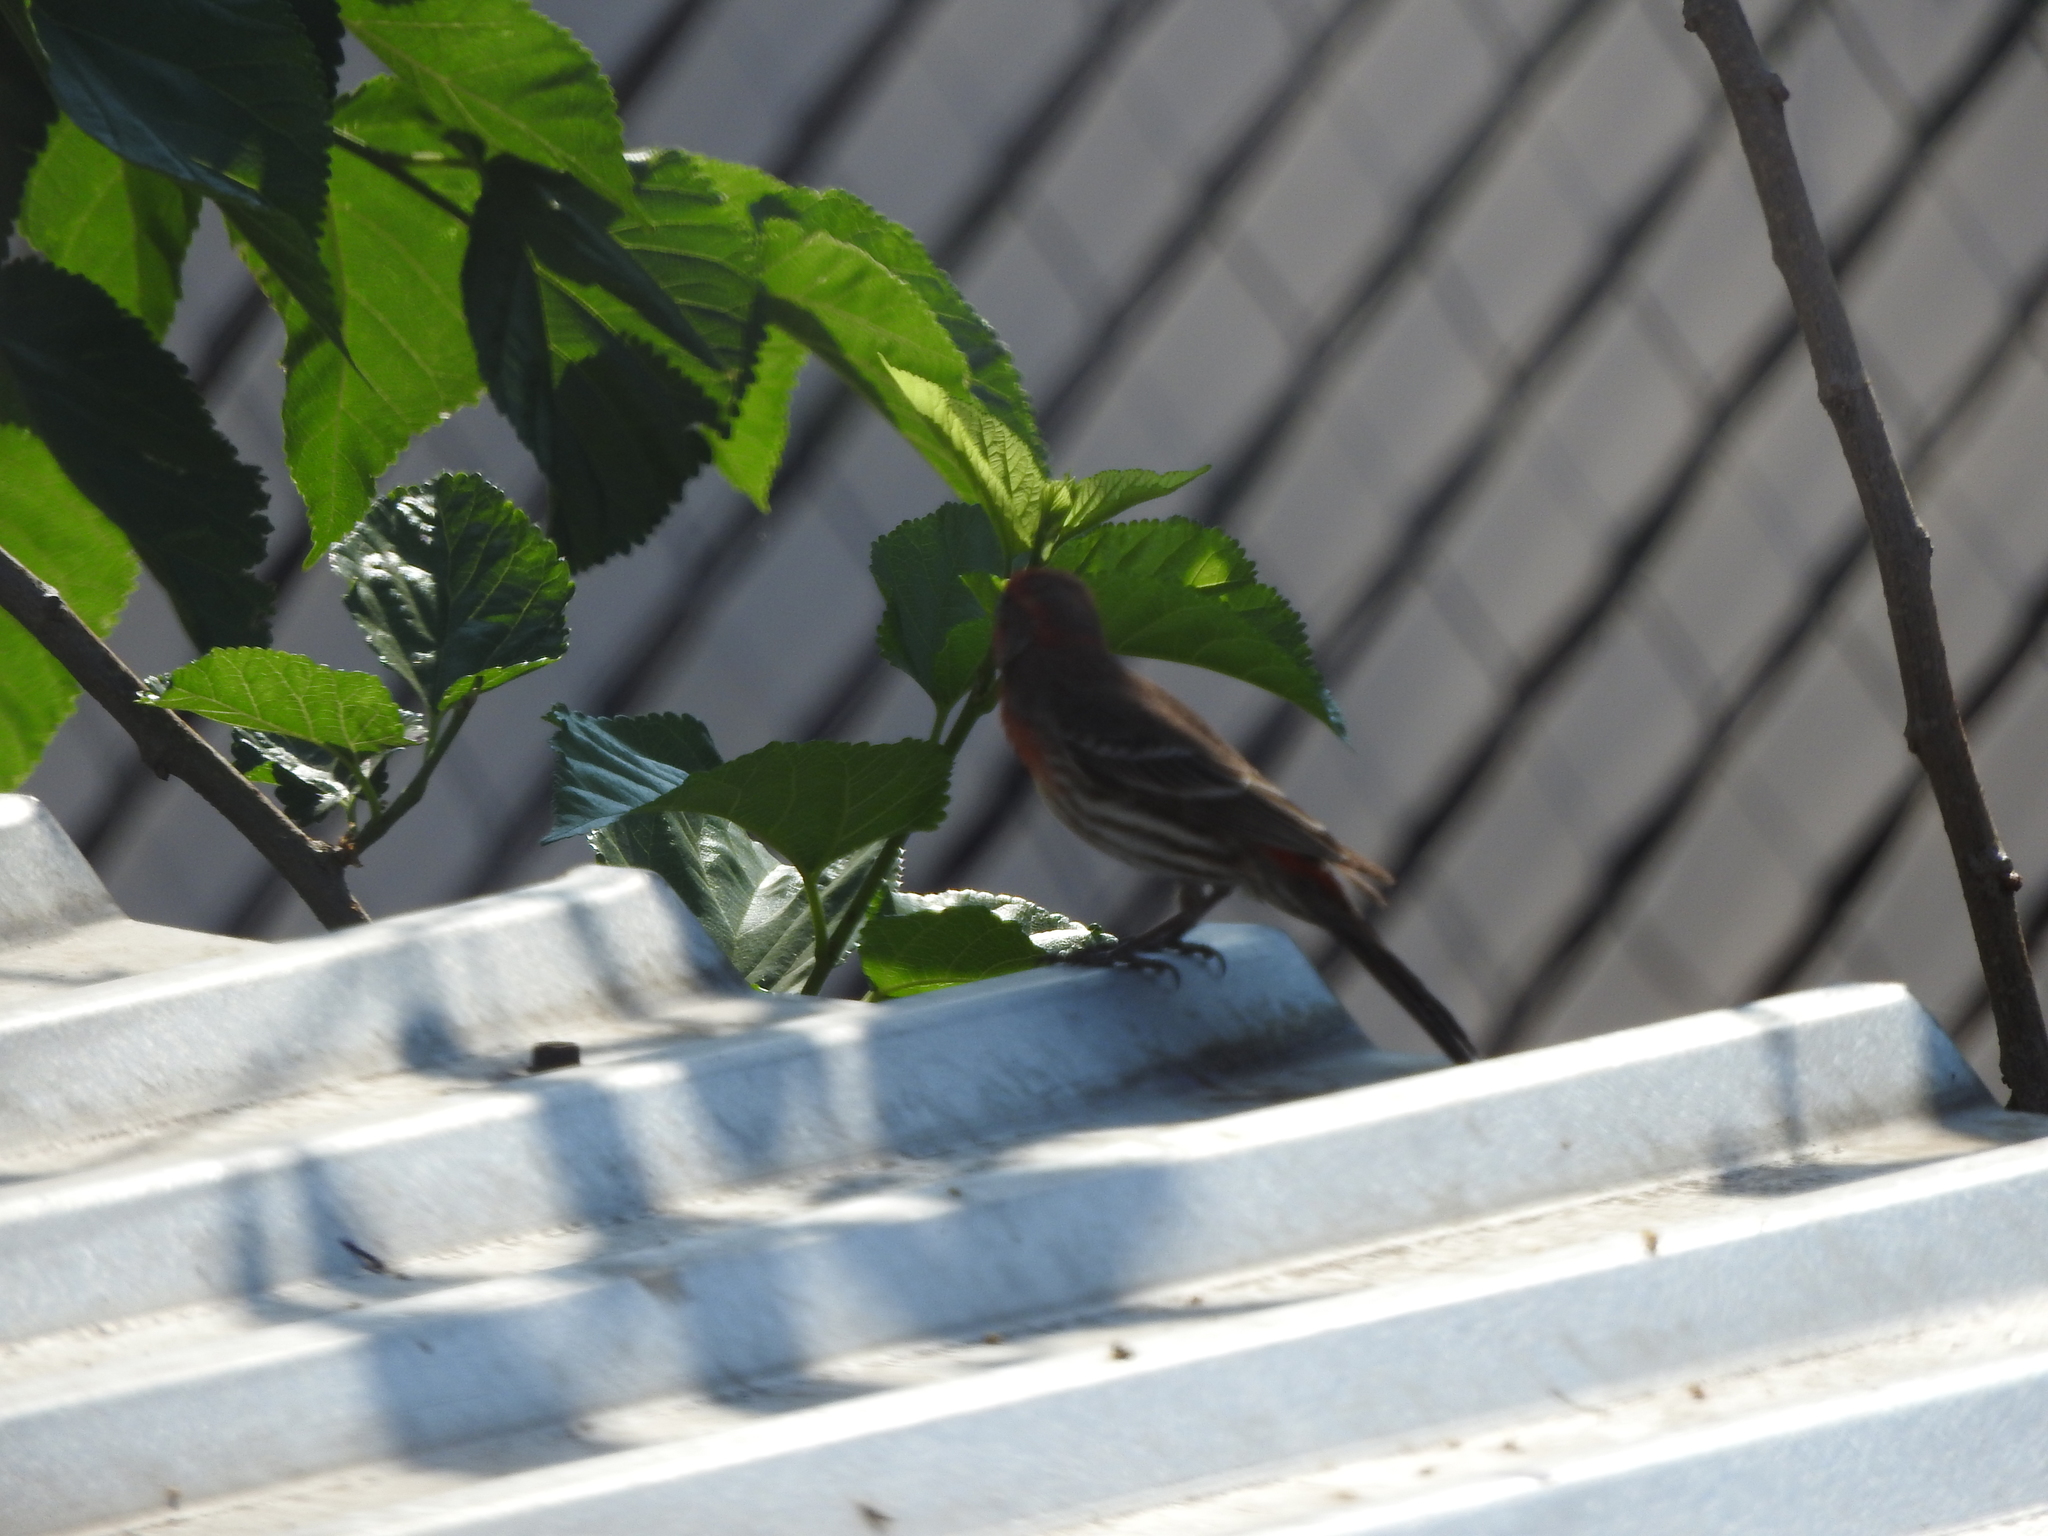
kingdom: Animalia
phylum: Chordata
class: Aves
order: Passeriformes
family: Fringillidae
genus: Haemorhous
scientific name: Haemorhous mexicanus
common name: House finch
